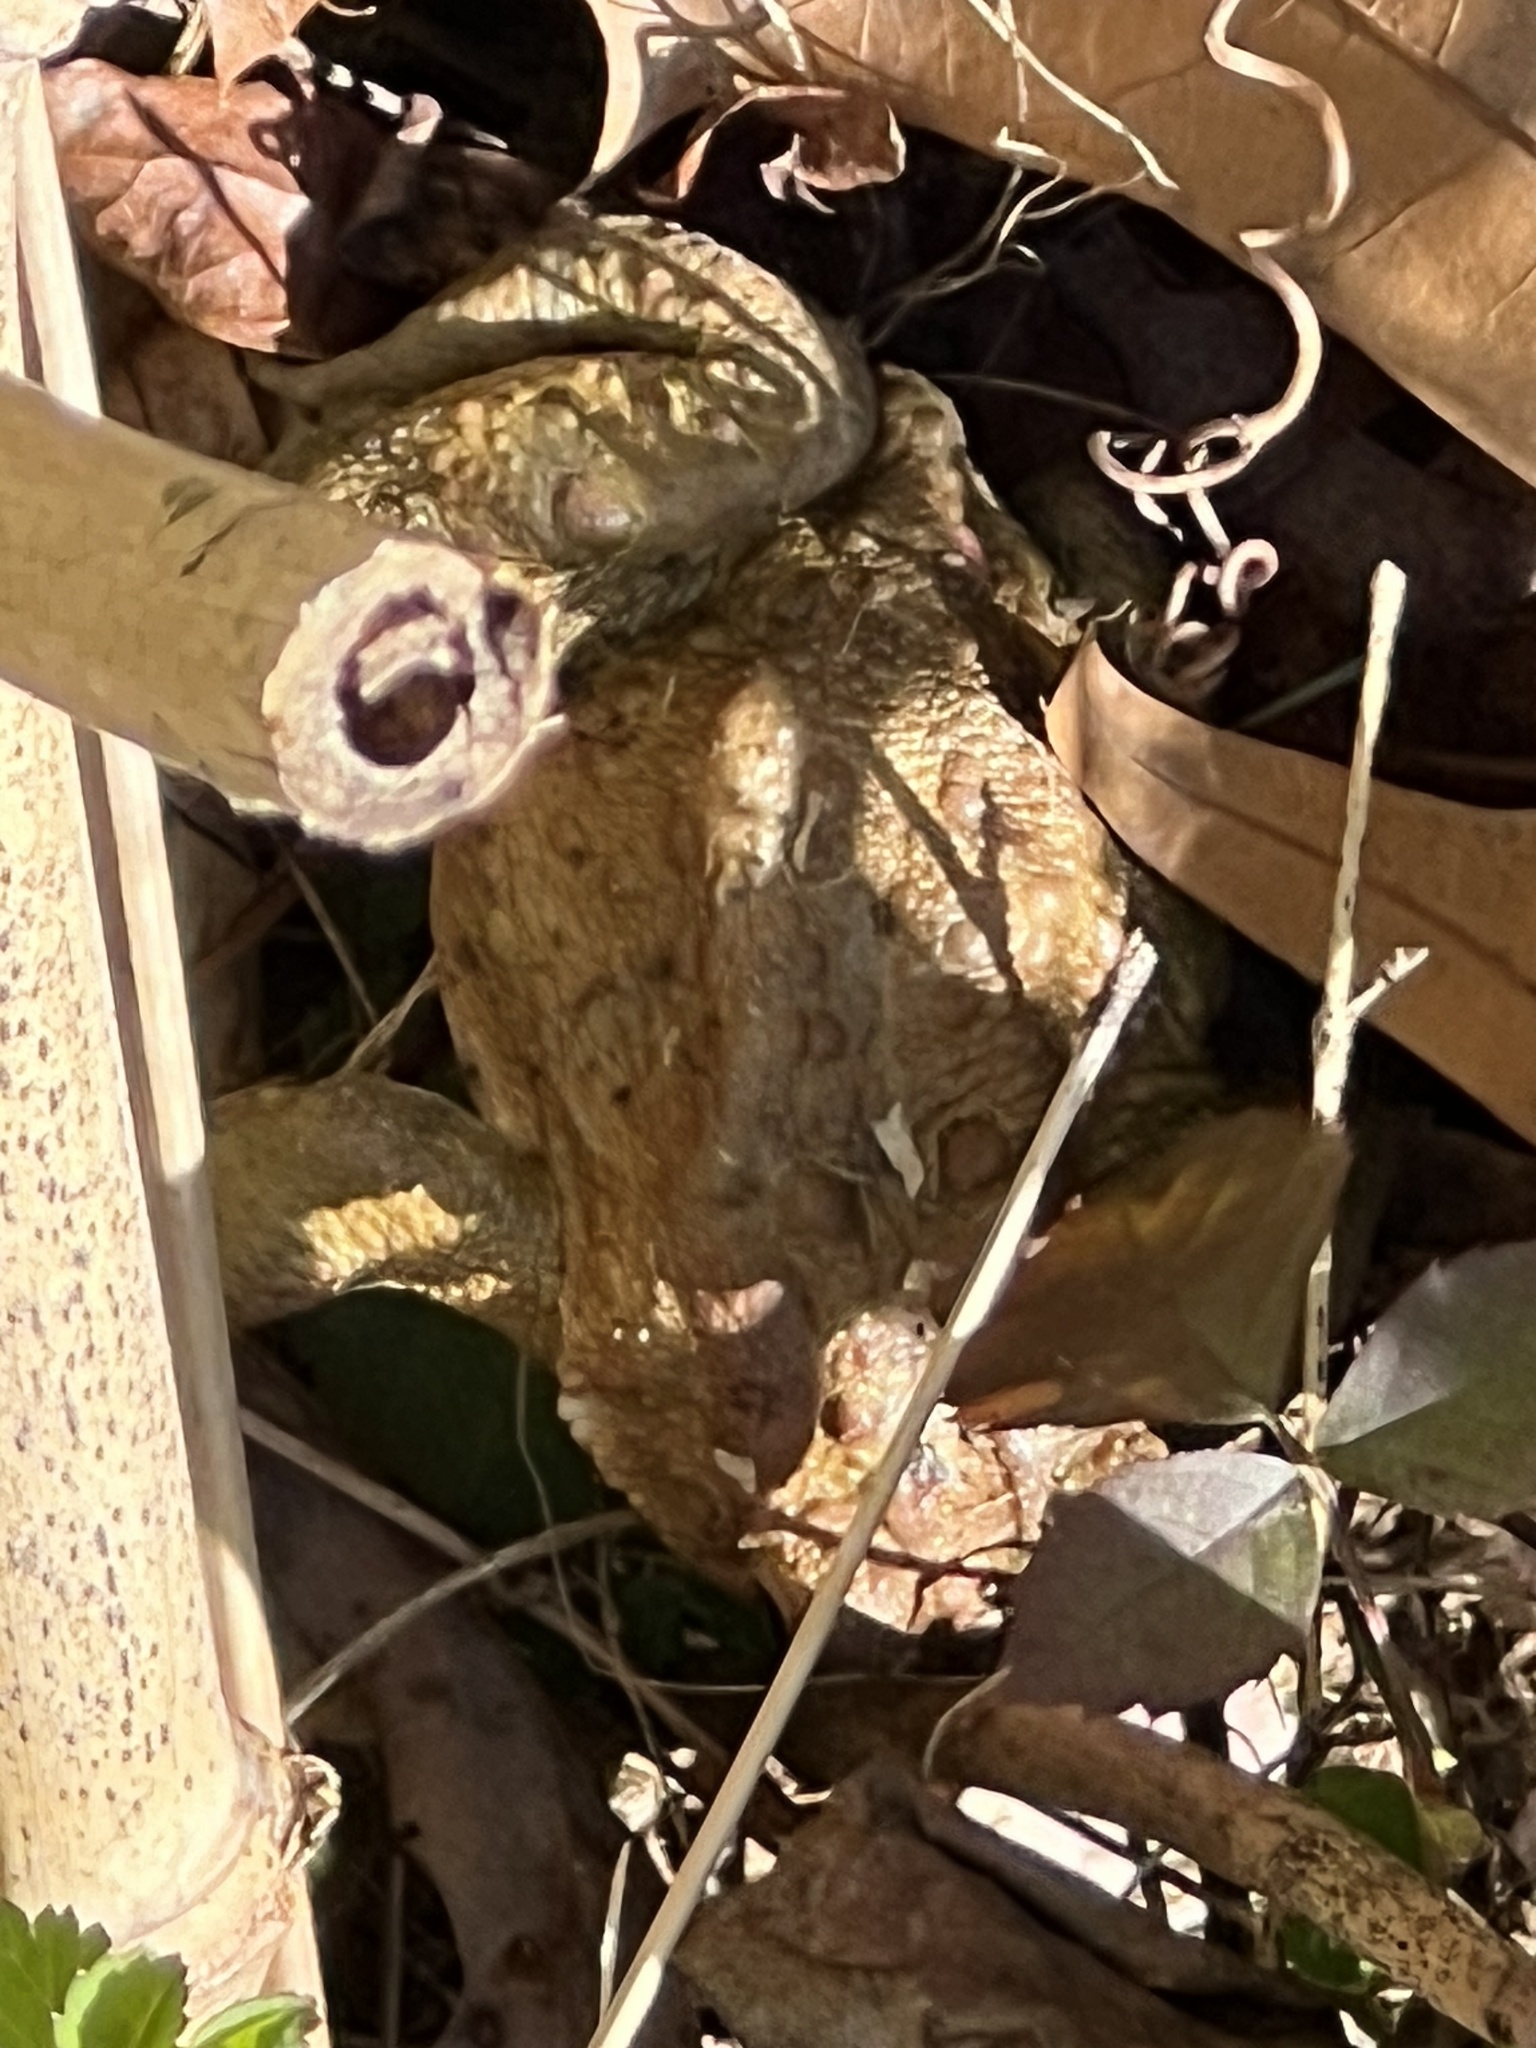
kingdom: Animalia
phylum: Chordata
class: Amphibia
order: Anura
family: Bufonidae
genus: Anaxyrus
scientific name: Anaxyrus americanus
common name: American toad
